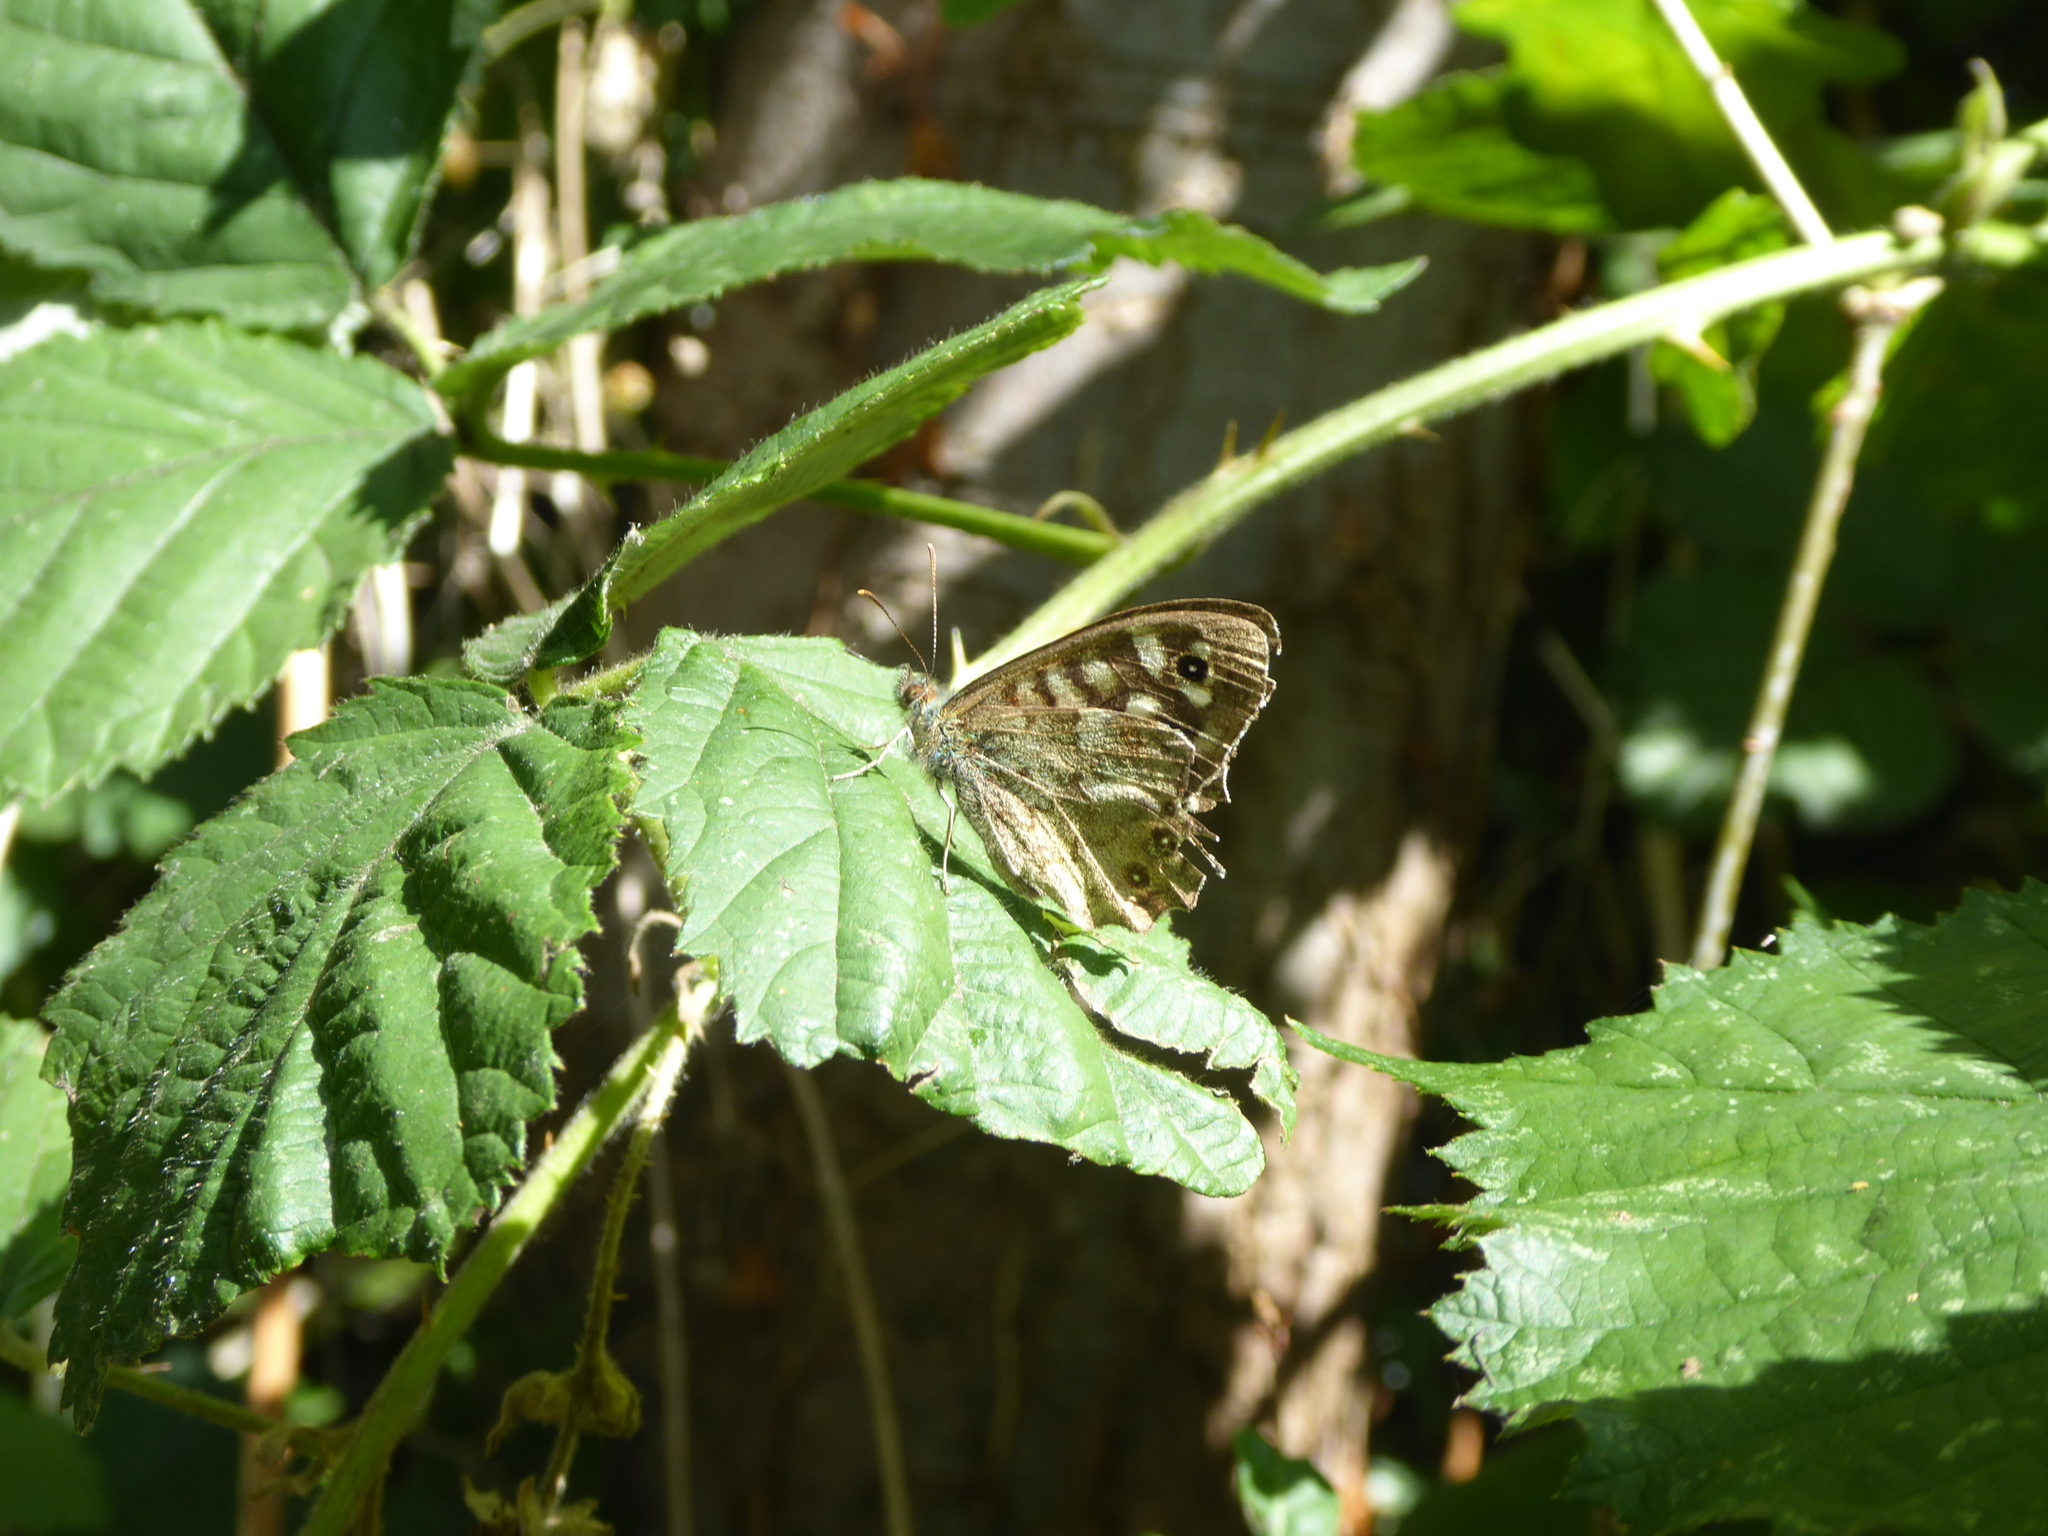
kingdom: Animalia
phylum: Arthropoda
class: Insecta
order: Lepidoptera
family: Nymphalidae
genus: Pararge
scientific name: Pararge aegeria
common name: Speckled wood
